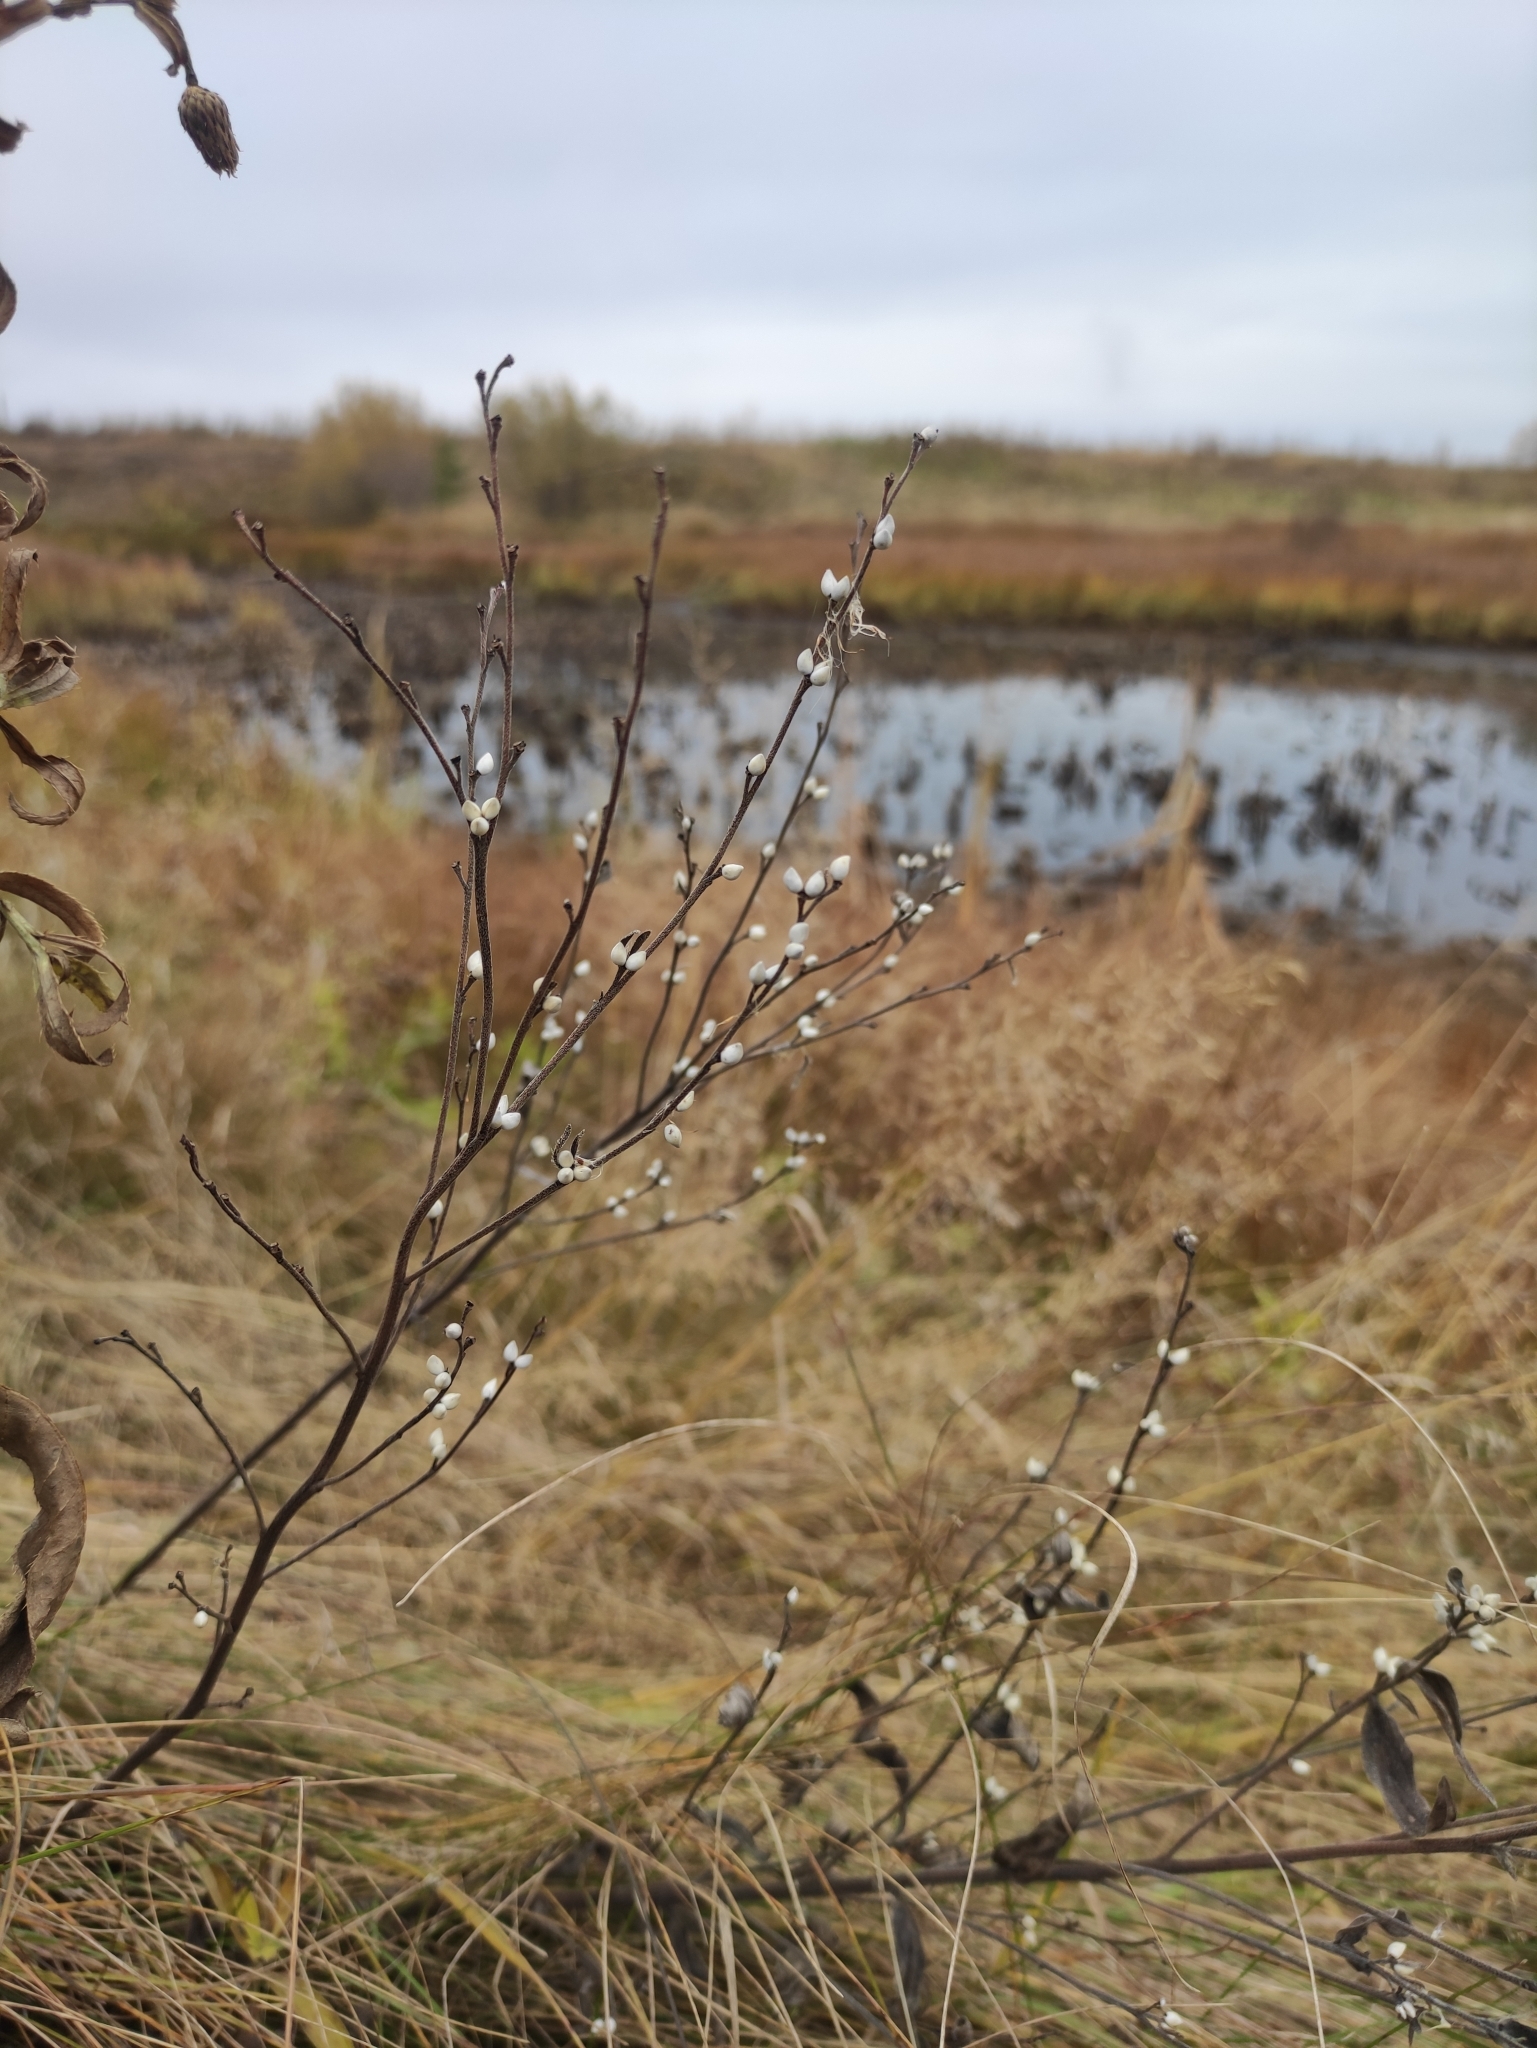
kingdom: Plantae
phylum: Tracheophyta
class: Magnoliopsida
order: Boraginales
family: Boraginaceae
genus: Lithospermum
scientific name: Lithospermum officinale
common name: Common gromwell
